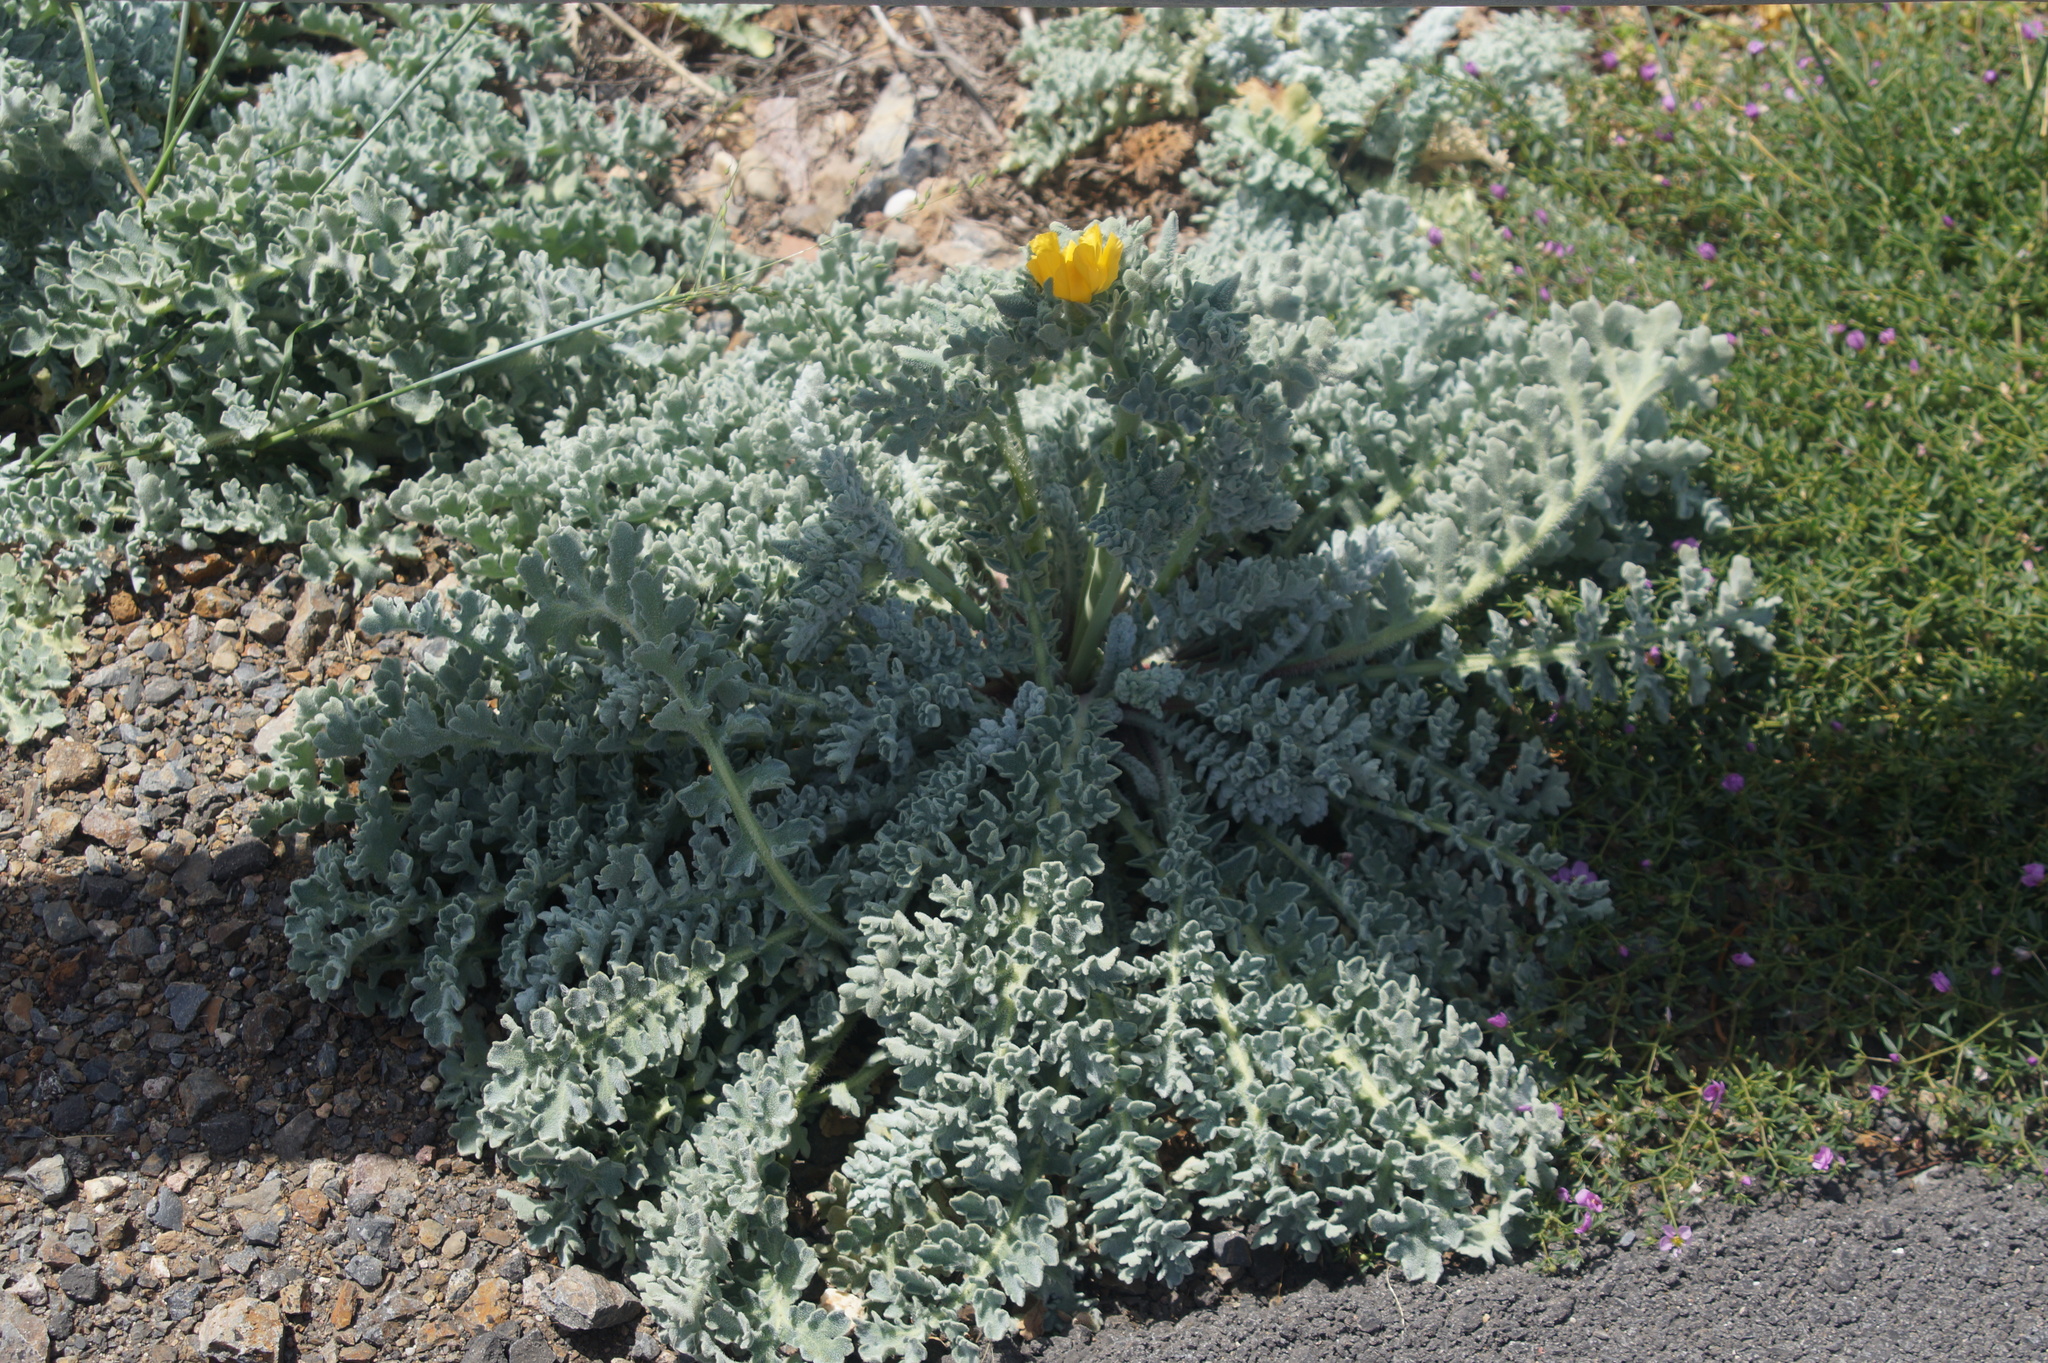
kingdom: Plantae
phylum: Tracheophyta
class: Magnoliopsida
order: Ranunculales
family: Papaveraceae
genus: Glaucium
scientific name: Glaucium flavum
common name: Yellow horned-poppy
